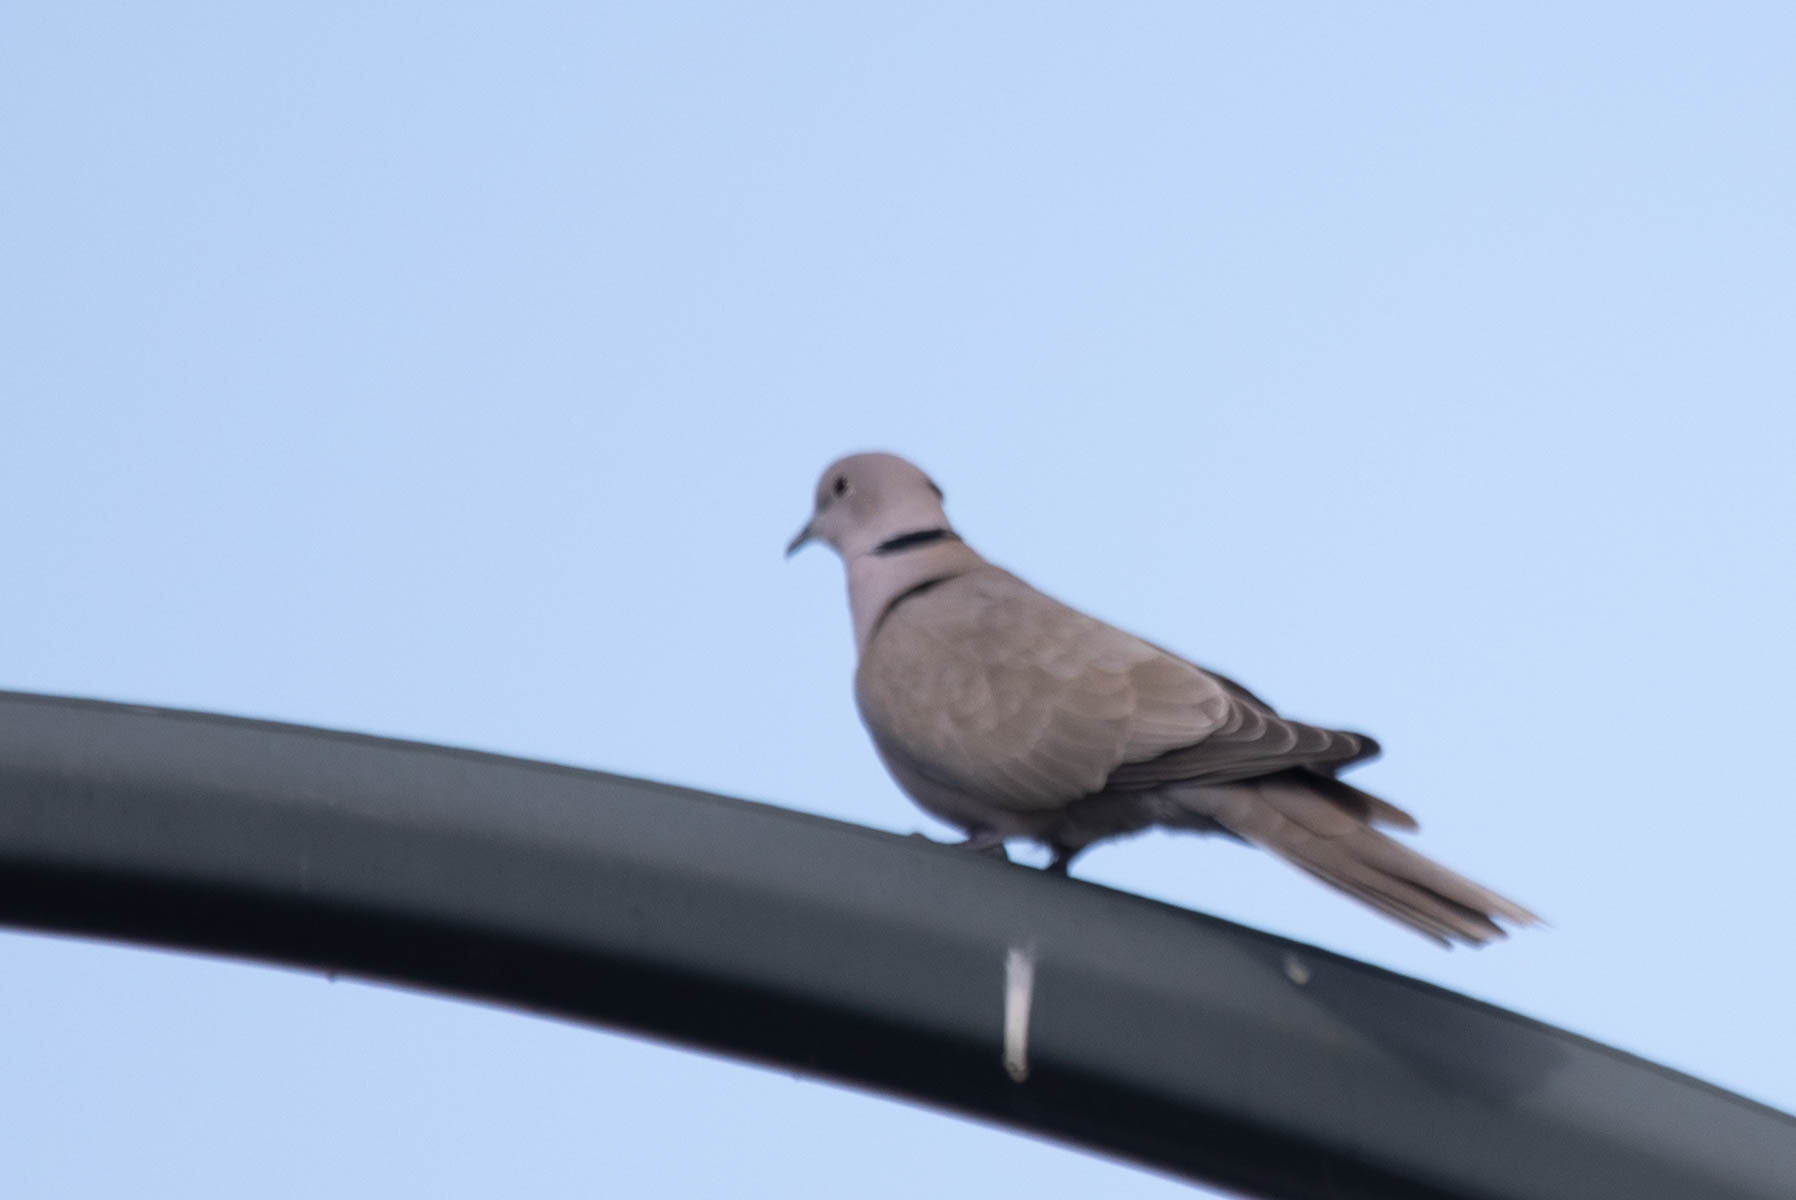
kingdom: Animalia
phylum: Chordata
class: Aves
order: Columbiformes
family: Columbidae
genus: Streptopelia
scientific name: Streptopelia decaocto
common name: Eurasian collared dove
